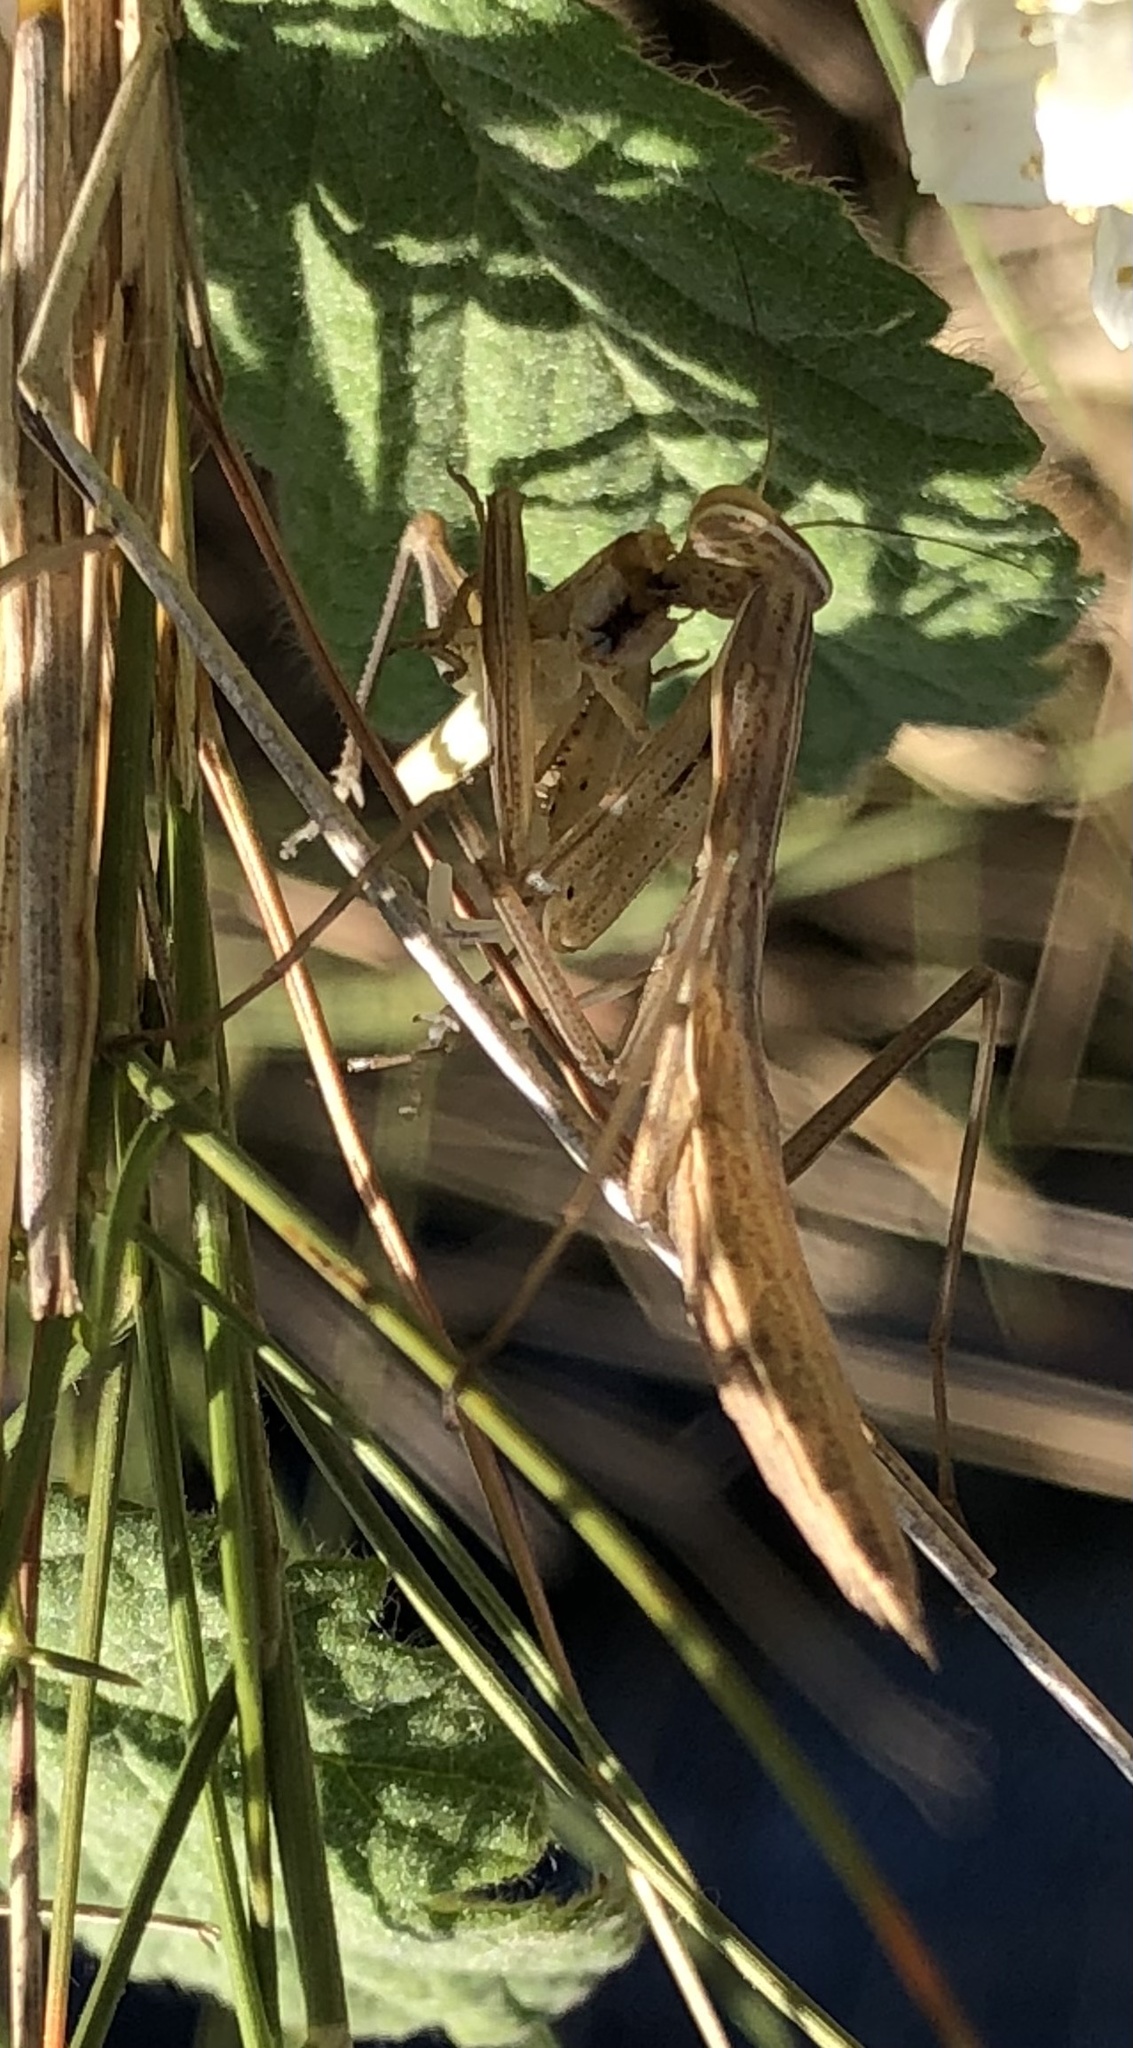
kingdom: Animalia
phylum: Arthropoda
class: Insecta
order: Mantodea
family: Mantidae
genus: Mantis
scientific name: Mantis religiosa
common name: Praying mantis
